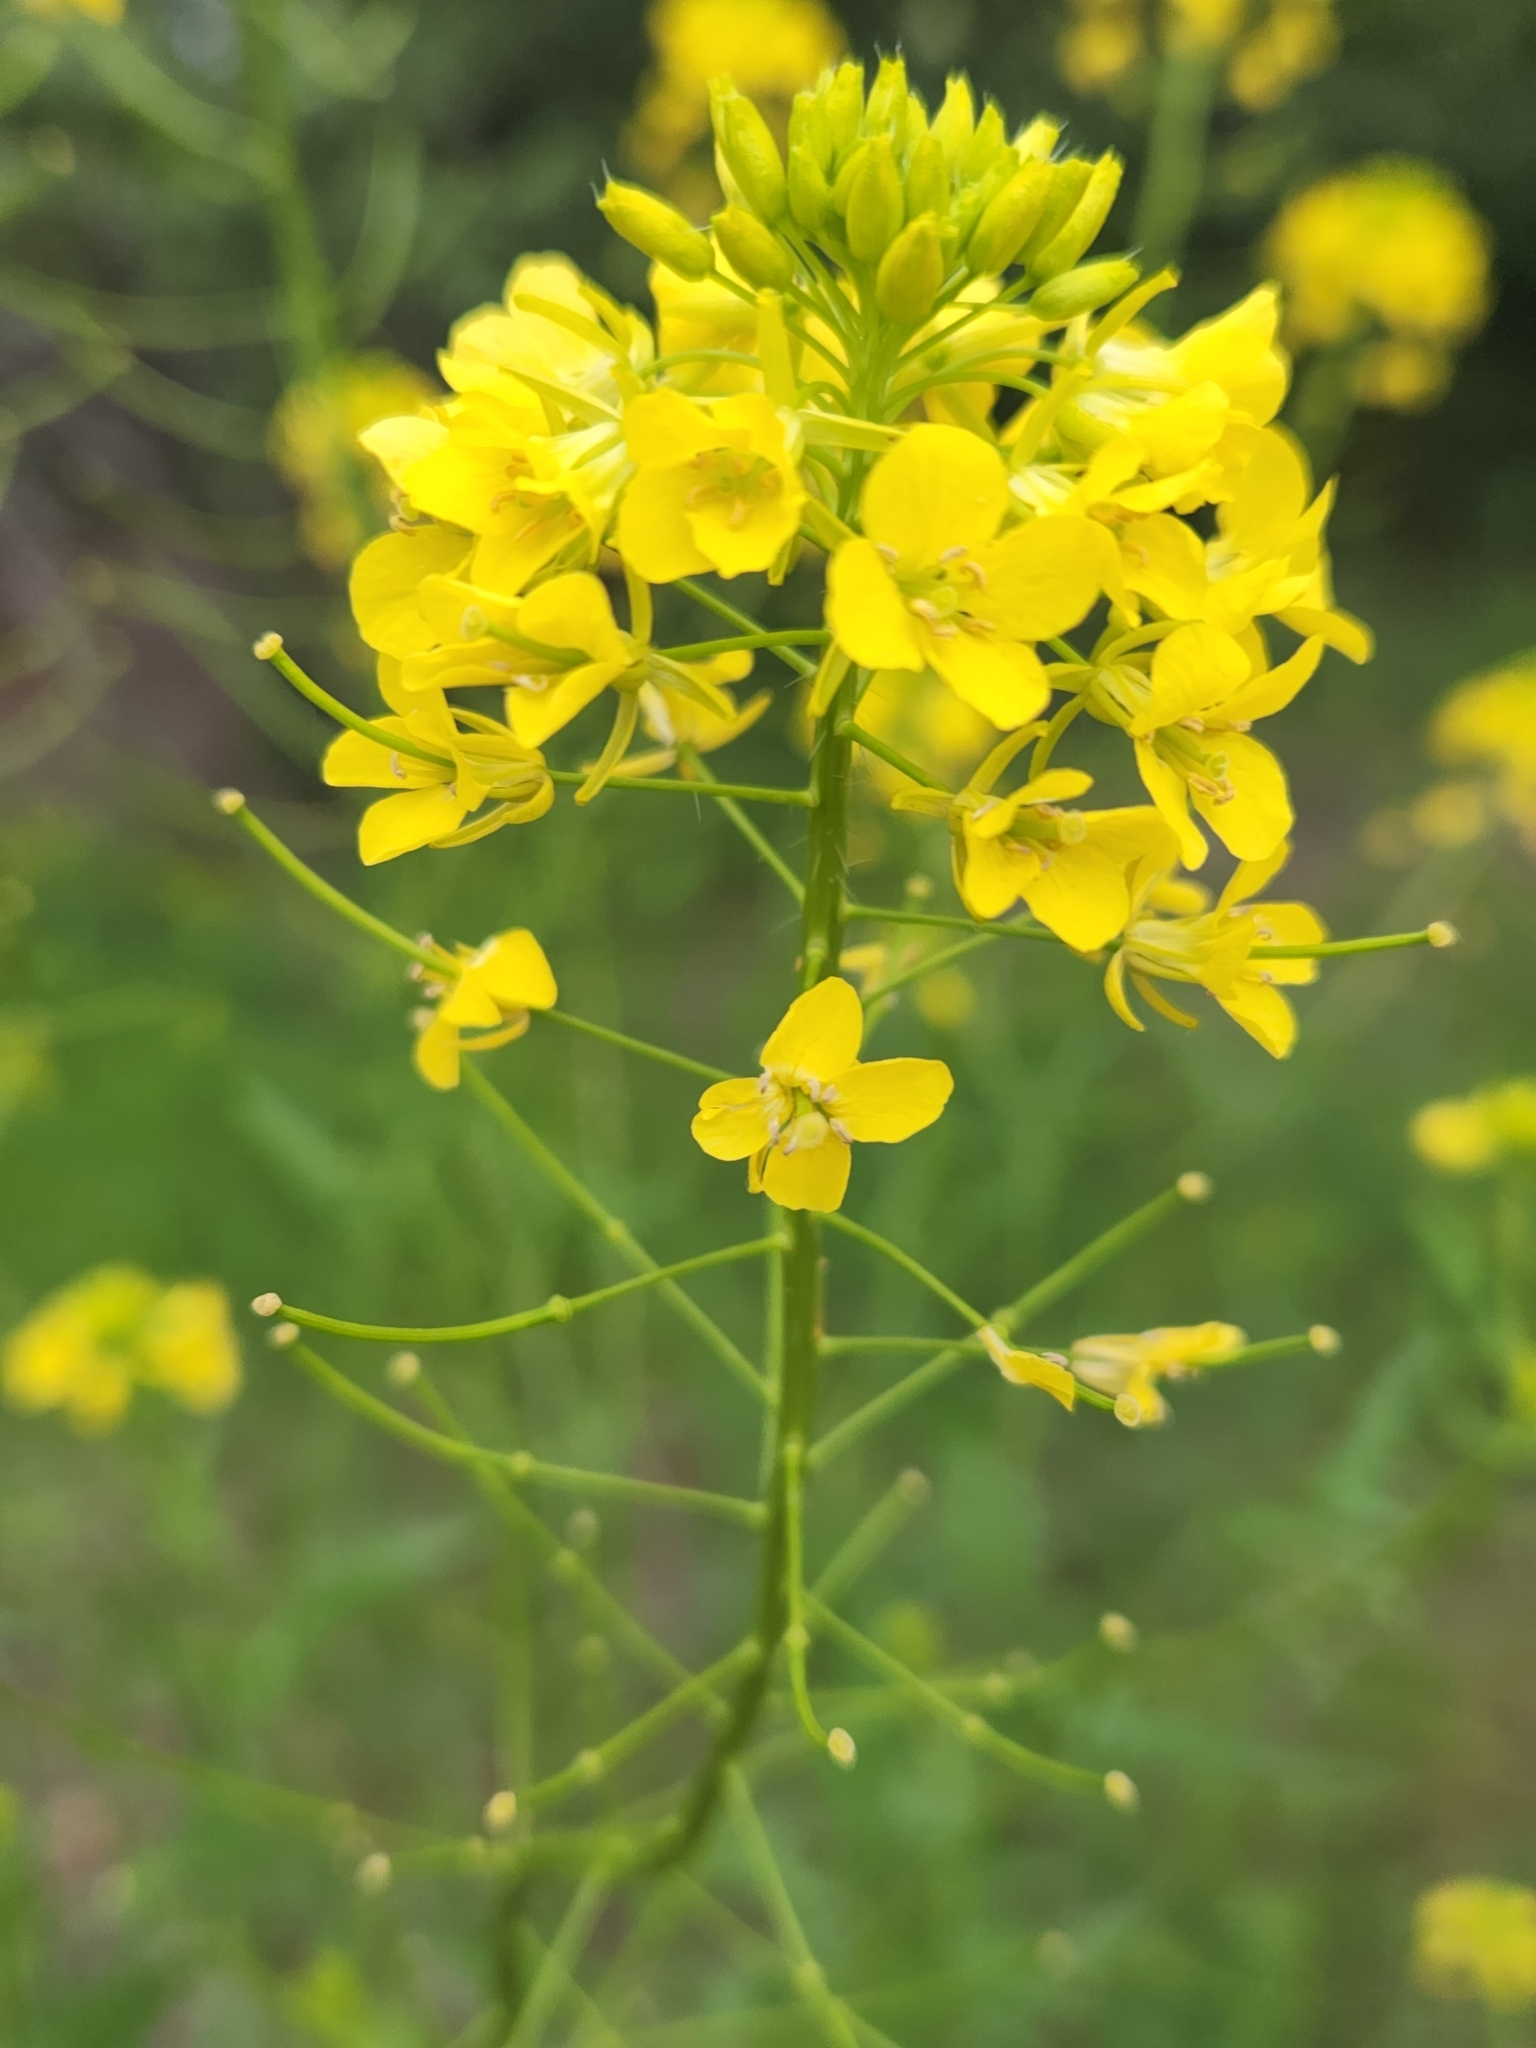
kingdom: Plantae
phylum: Tracheophyta
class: Magnoliopsida
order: Brassicales
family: Brassicaceae
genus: Sisymbrium
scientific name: Sisymbrium loeselii
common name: False london-rocket
